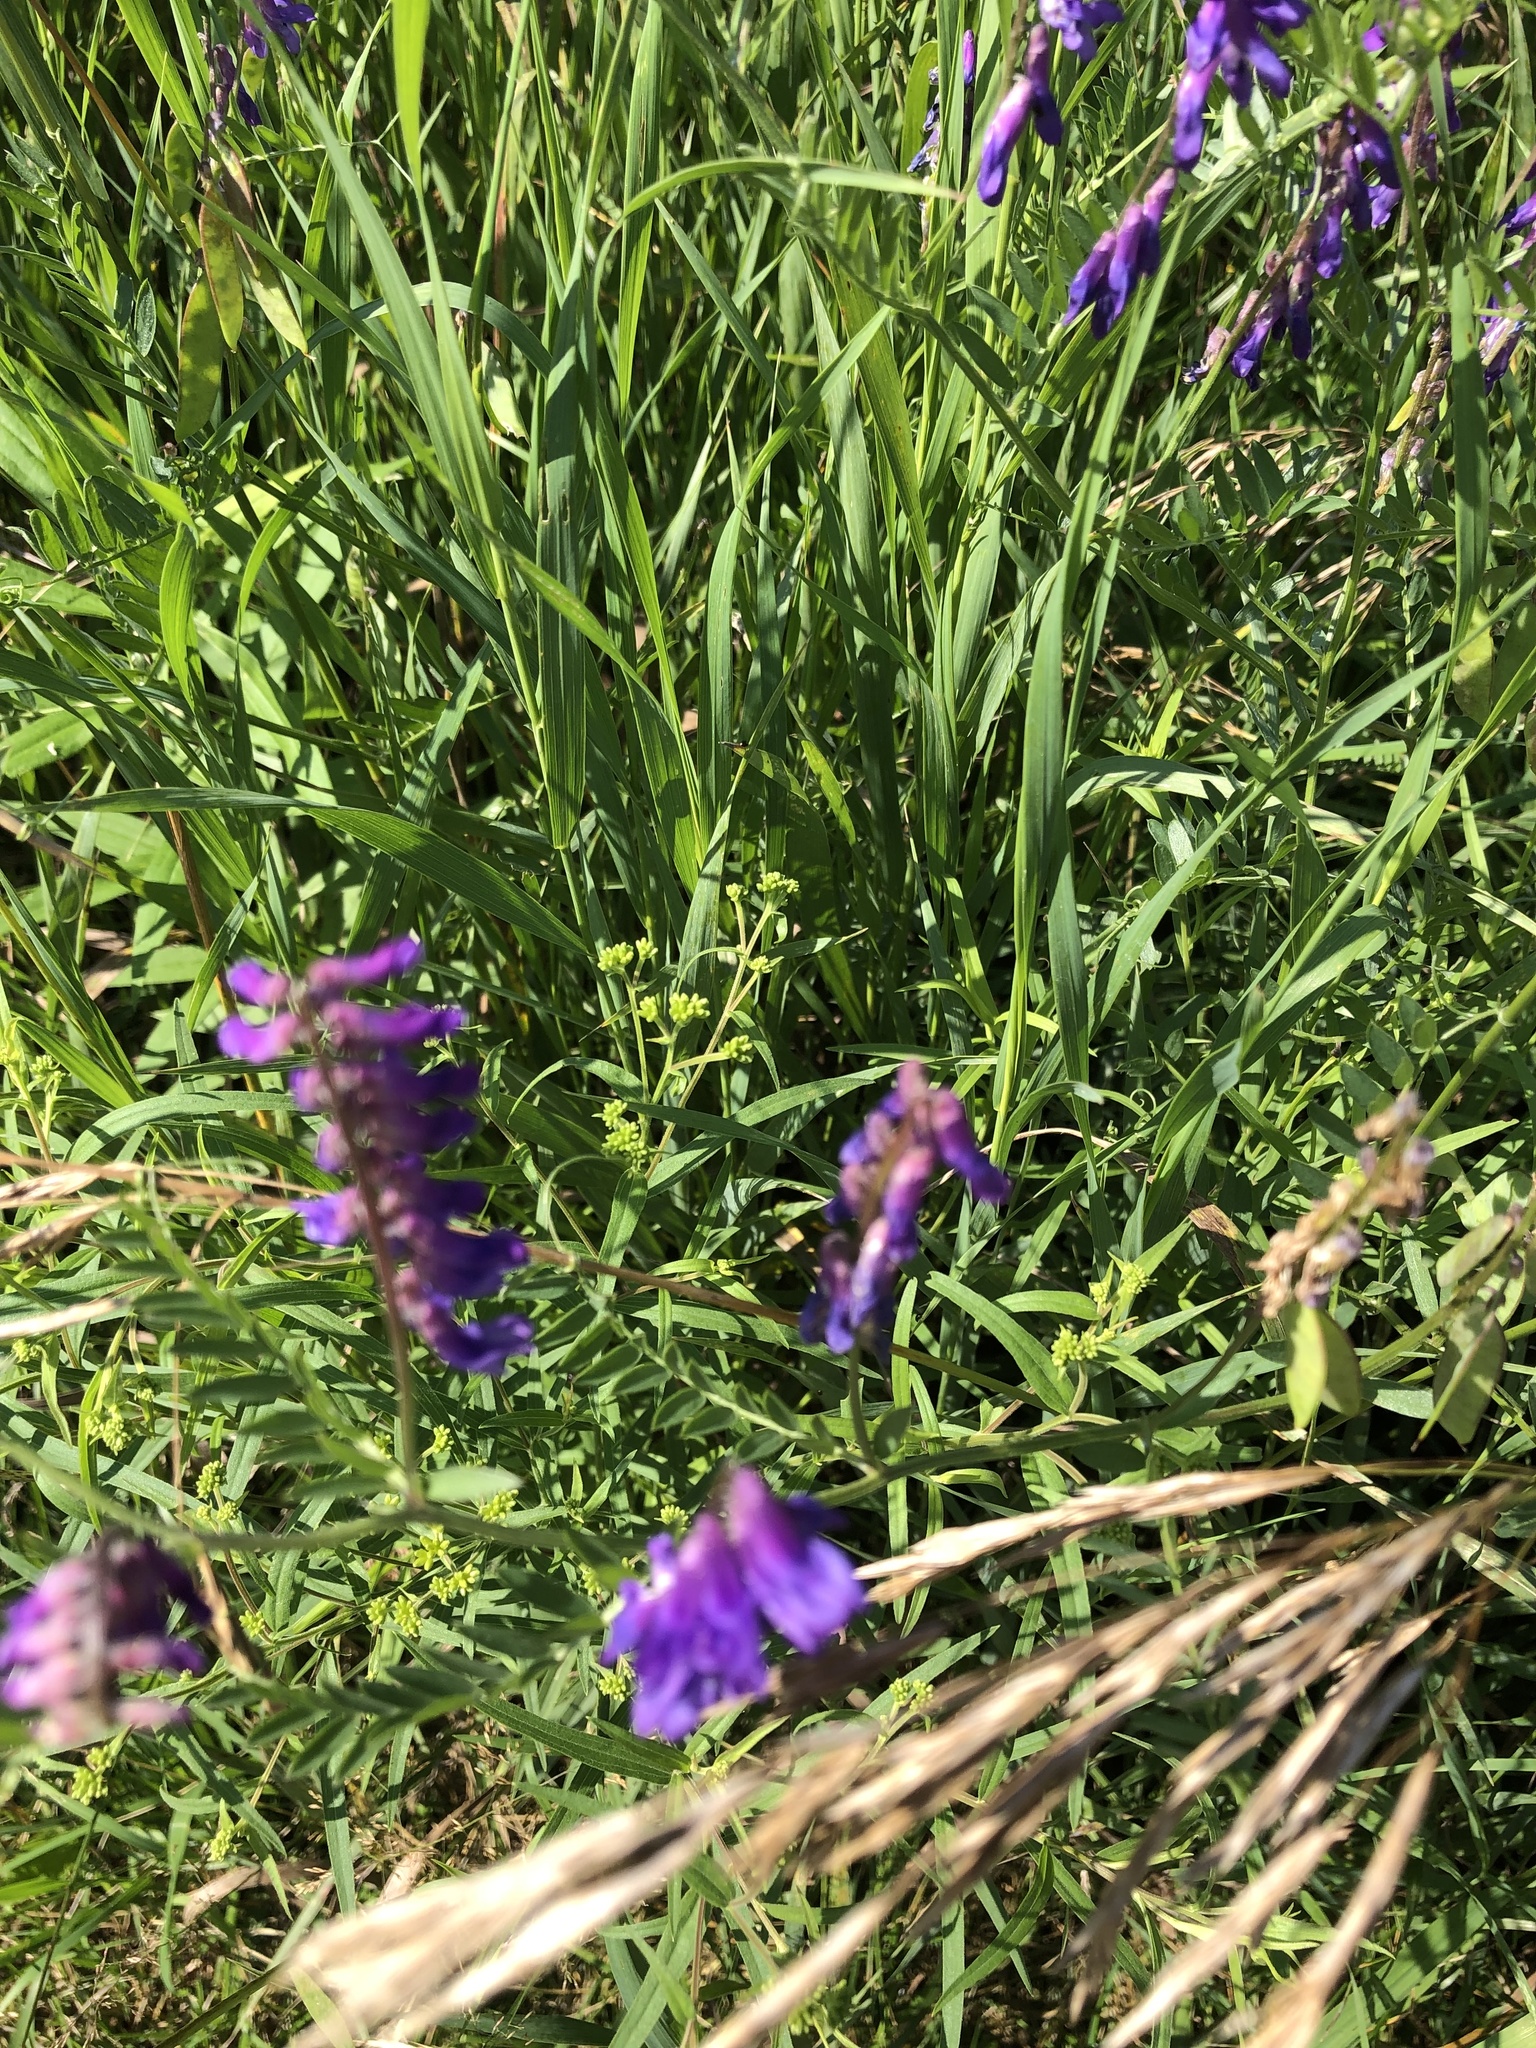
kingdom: Plantae
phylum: Tracheophyta
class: Magnoliopsida
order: Fabales
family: Fabaceae
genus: Vicia
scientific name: Vicia cracca
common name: Bird vetch
